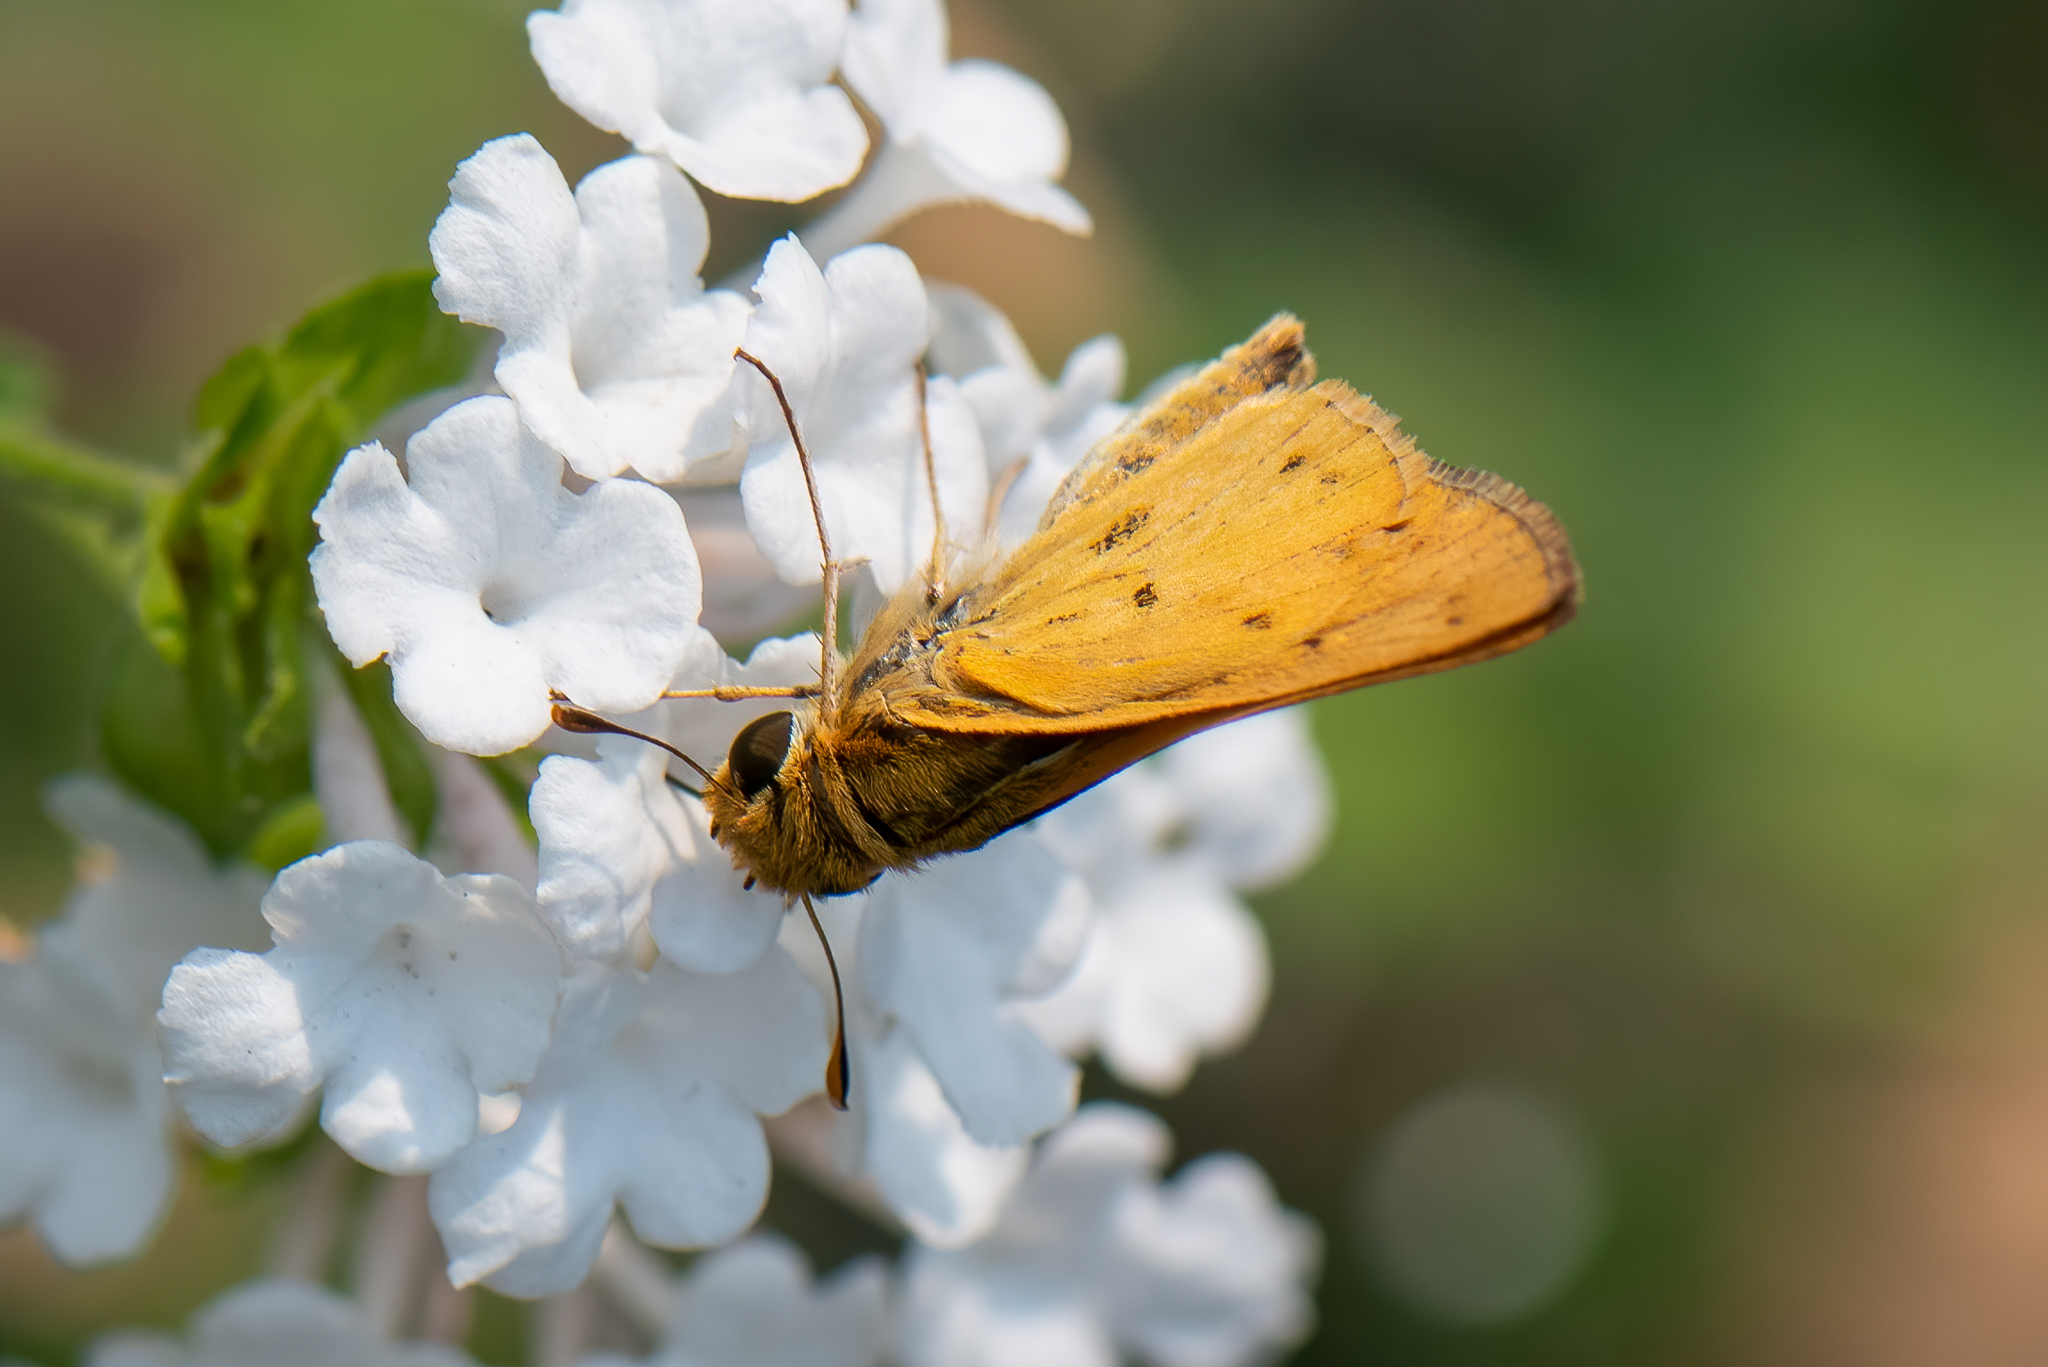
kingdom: Animalia
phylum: Arthropoda
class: Insecta
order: Lepidoptera
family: Hesperiidae
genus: Hylephila
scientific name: Hylephila phyleus
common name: Fiery skipper
